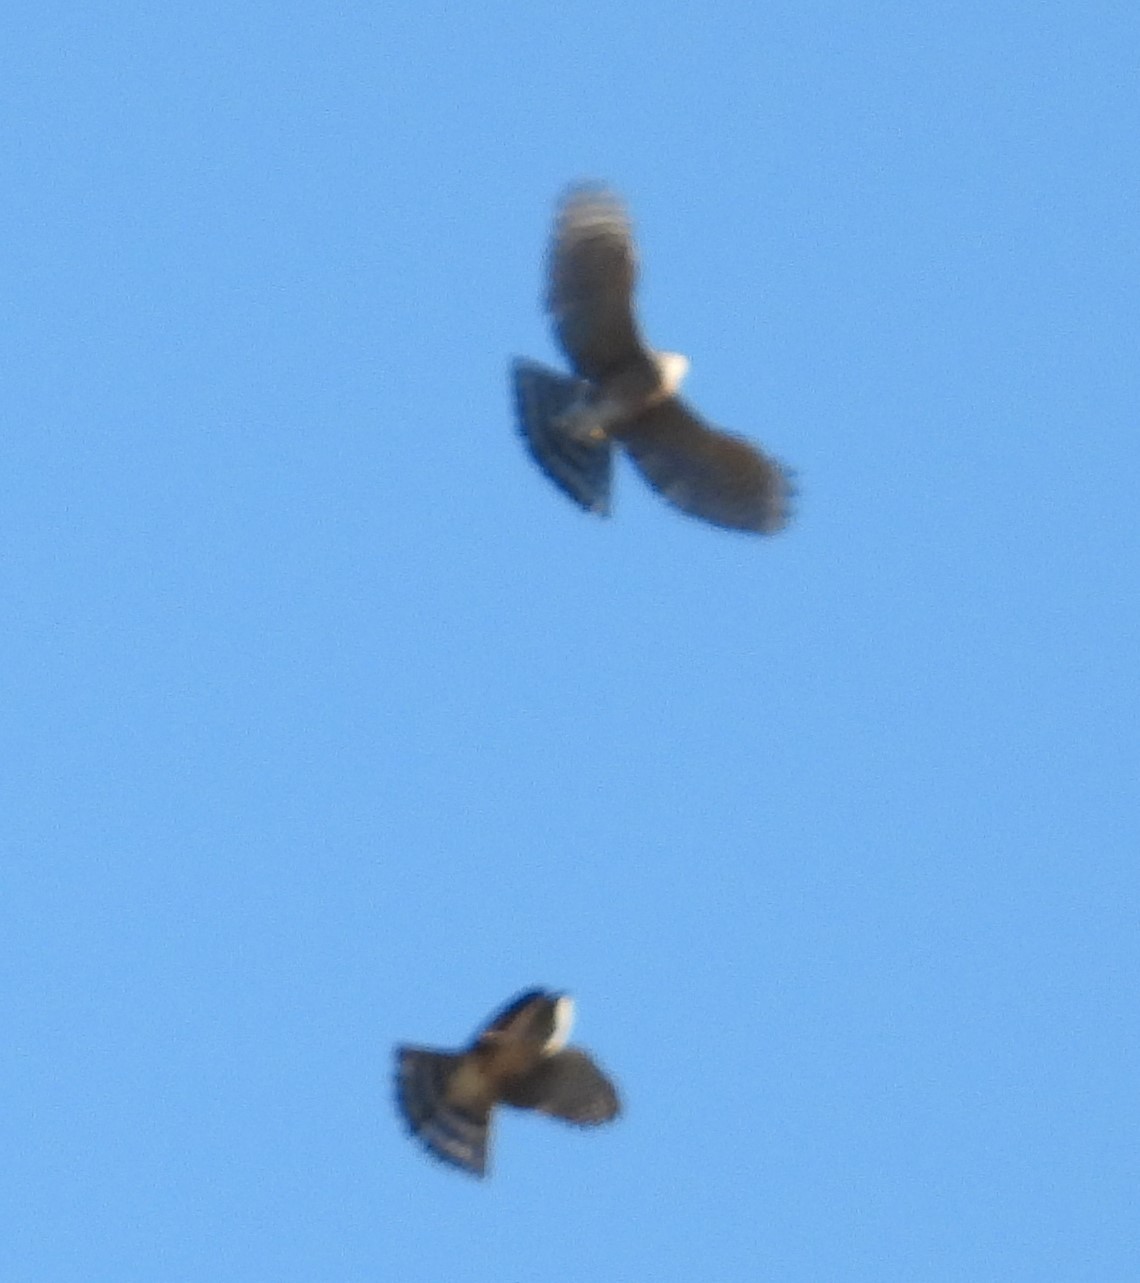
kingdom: Animalia
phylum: Chordata
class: Aves
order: Accipitriformes
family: Accipitridae
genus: Accipiter
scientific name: Accipiter striatus
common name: Sharp-shinned hawk
